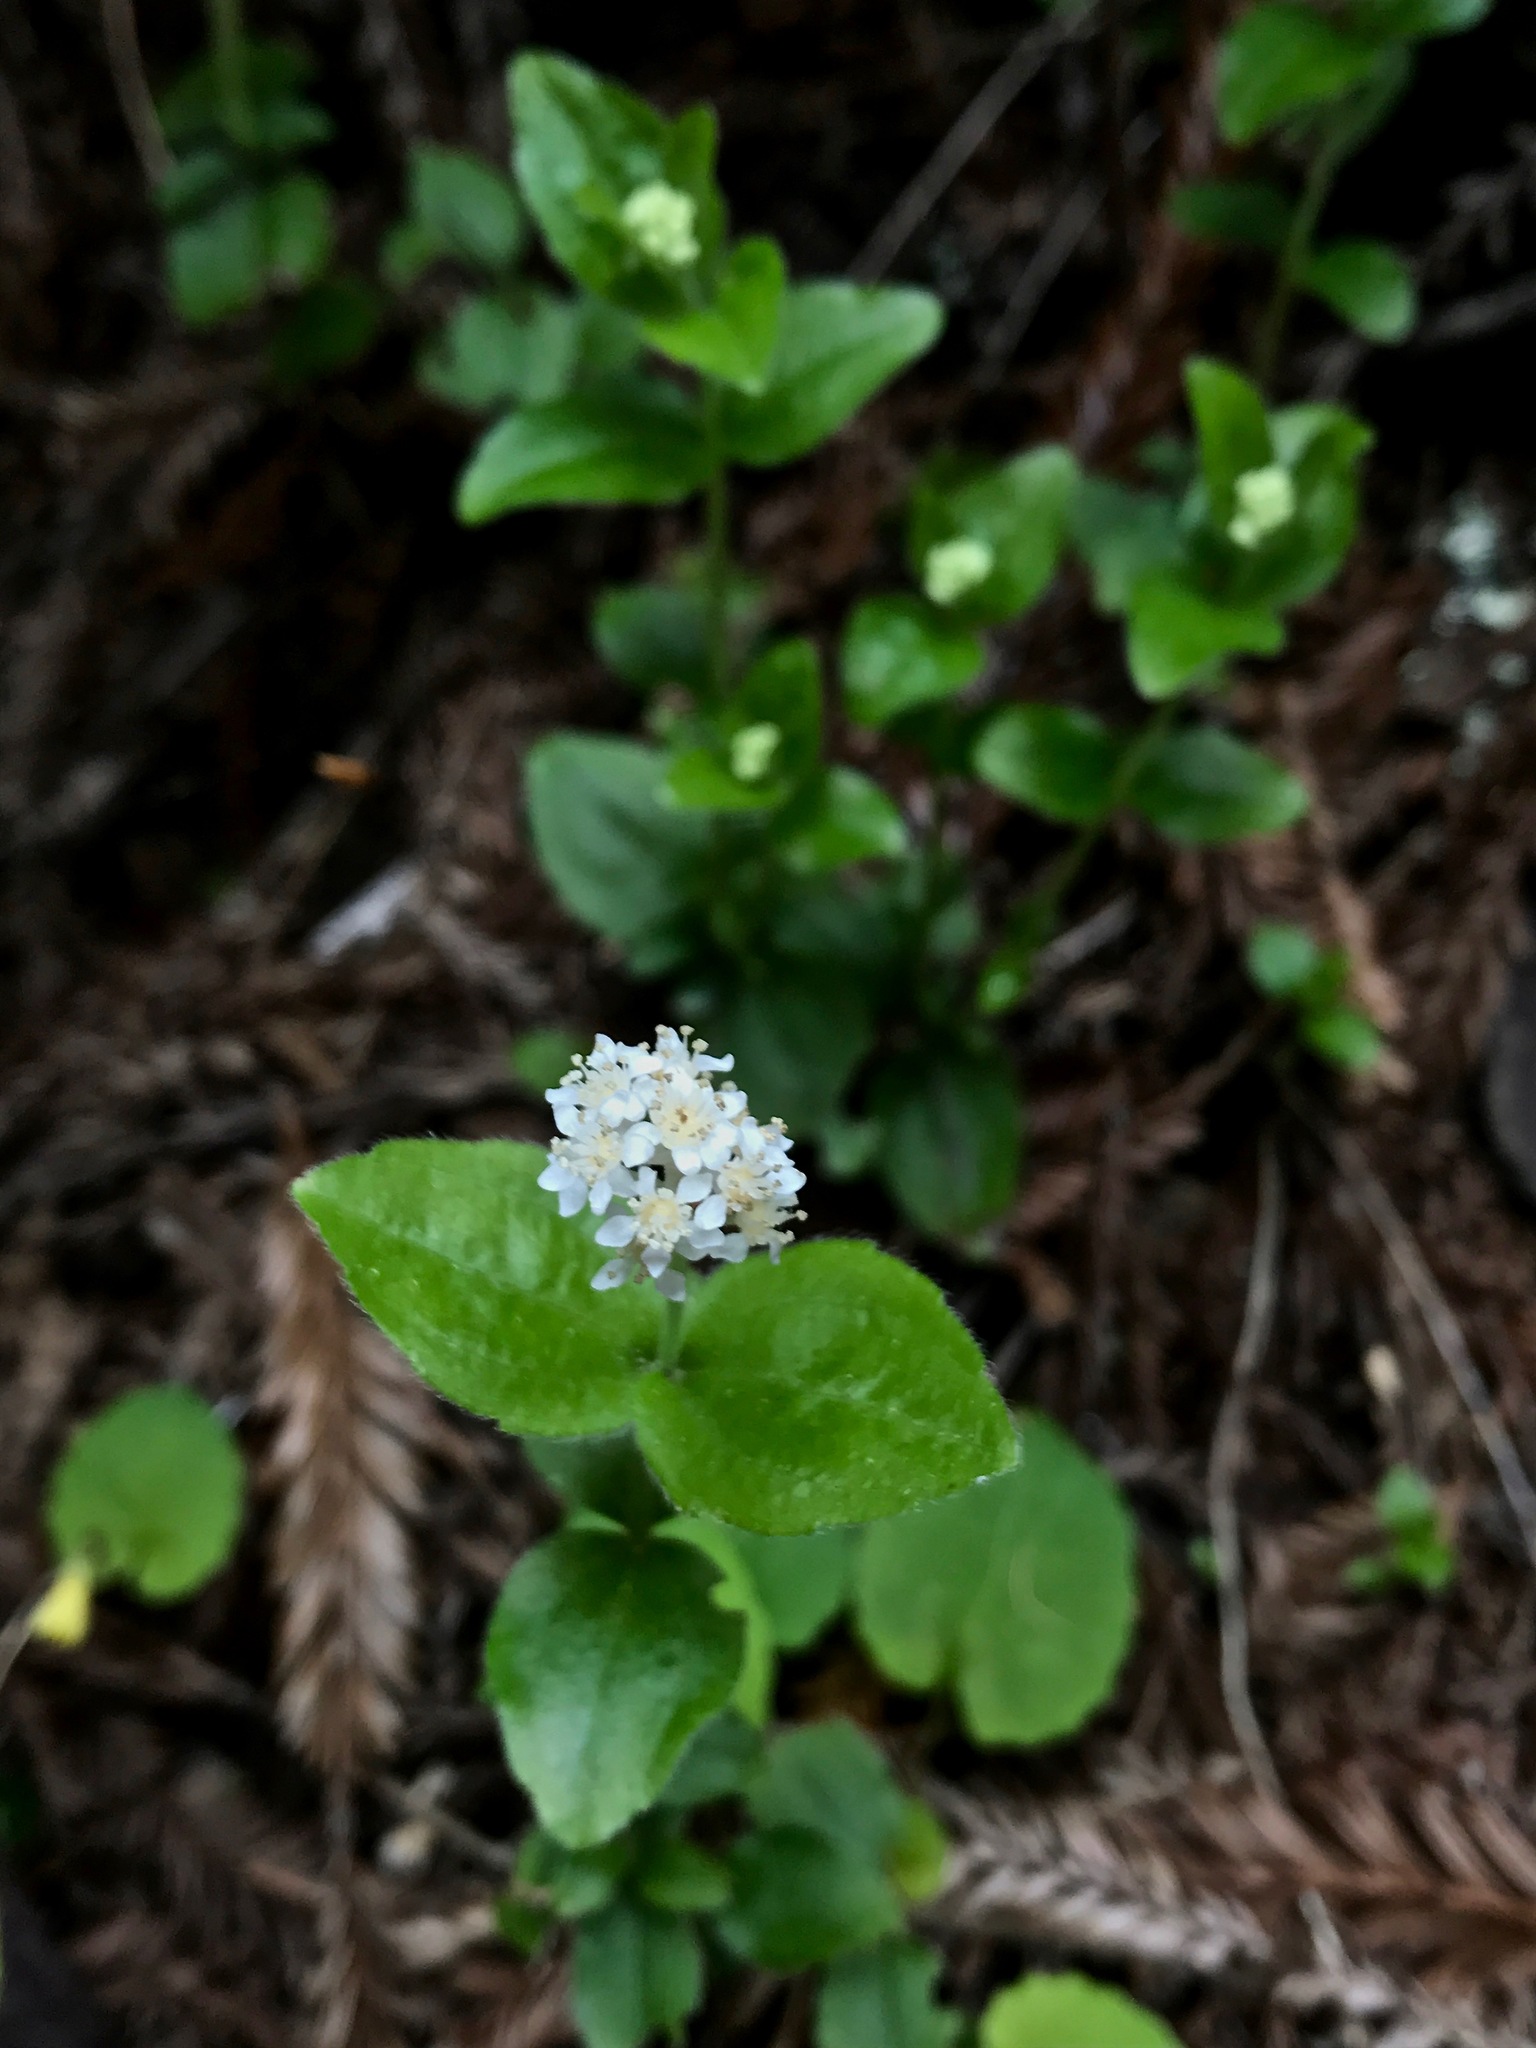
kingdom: Plantae
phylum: Tracheophyta
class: Magnoliopsida
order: Cornales
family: Hydrangeaceae
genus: Whipplea
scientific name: Whipplea modesta
